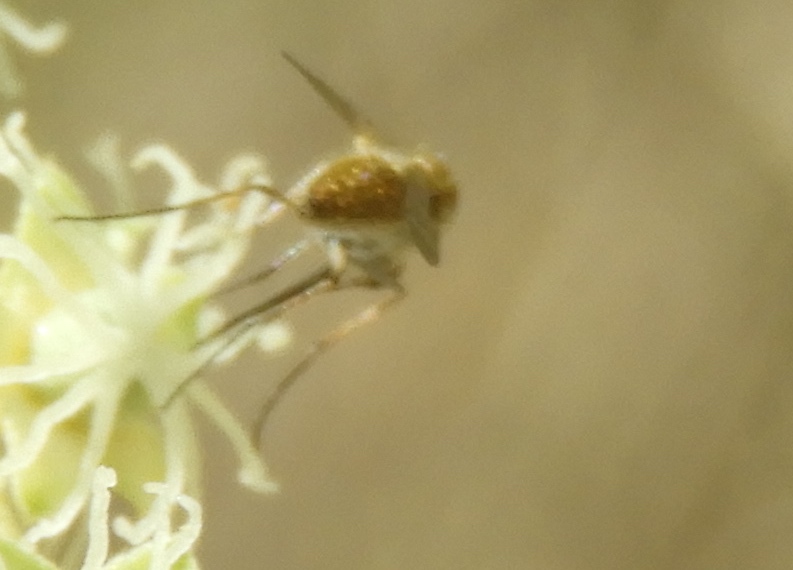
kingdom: Animalia
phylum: Arthropoda
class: Insecta
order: Diptera
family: Bombyliidae
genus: Geron
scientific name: Geron
